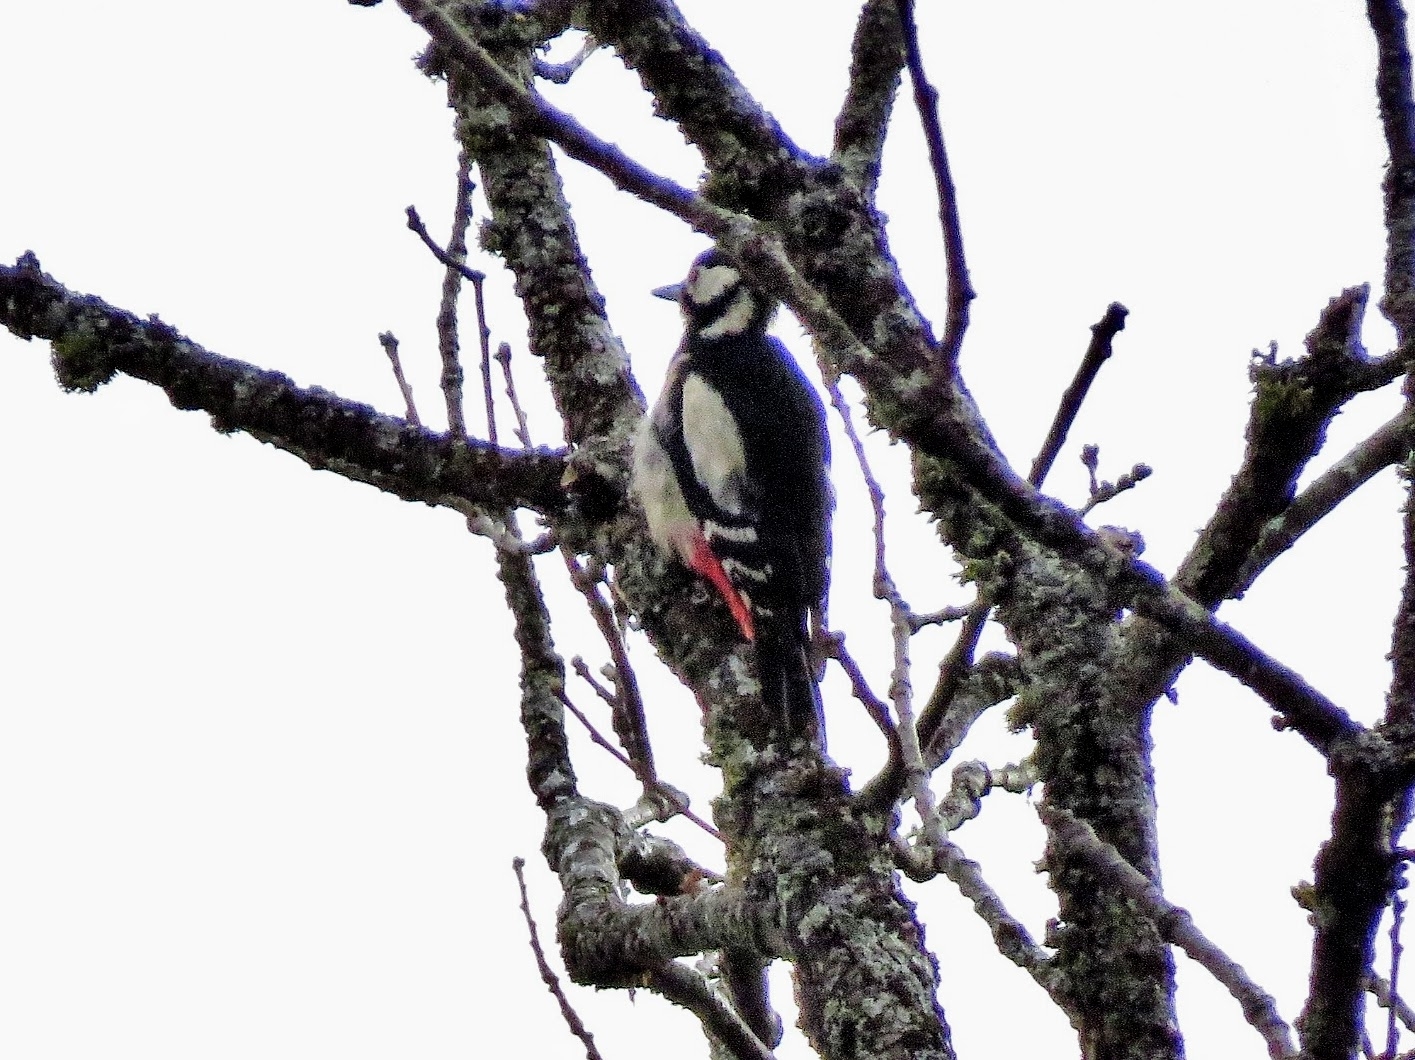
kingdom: Animalia
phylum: Chordata
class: Aves
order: Piciformes
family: Picidae
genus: Dendrocopos
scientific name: Dendrocopos major
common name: Great spotted woodpecker
